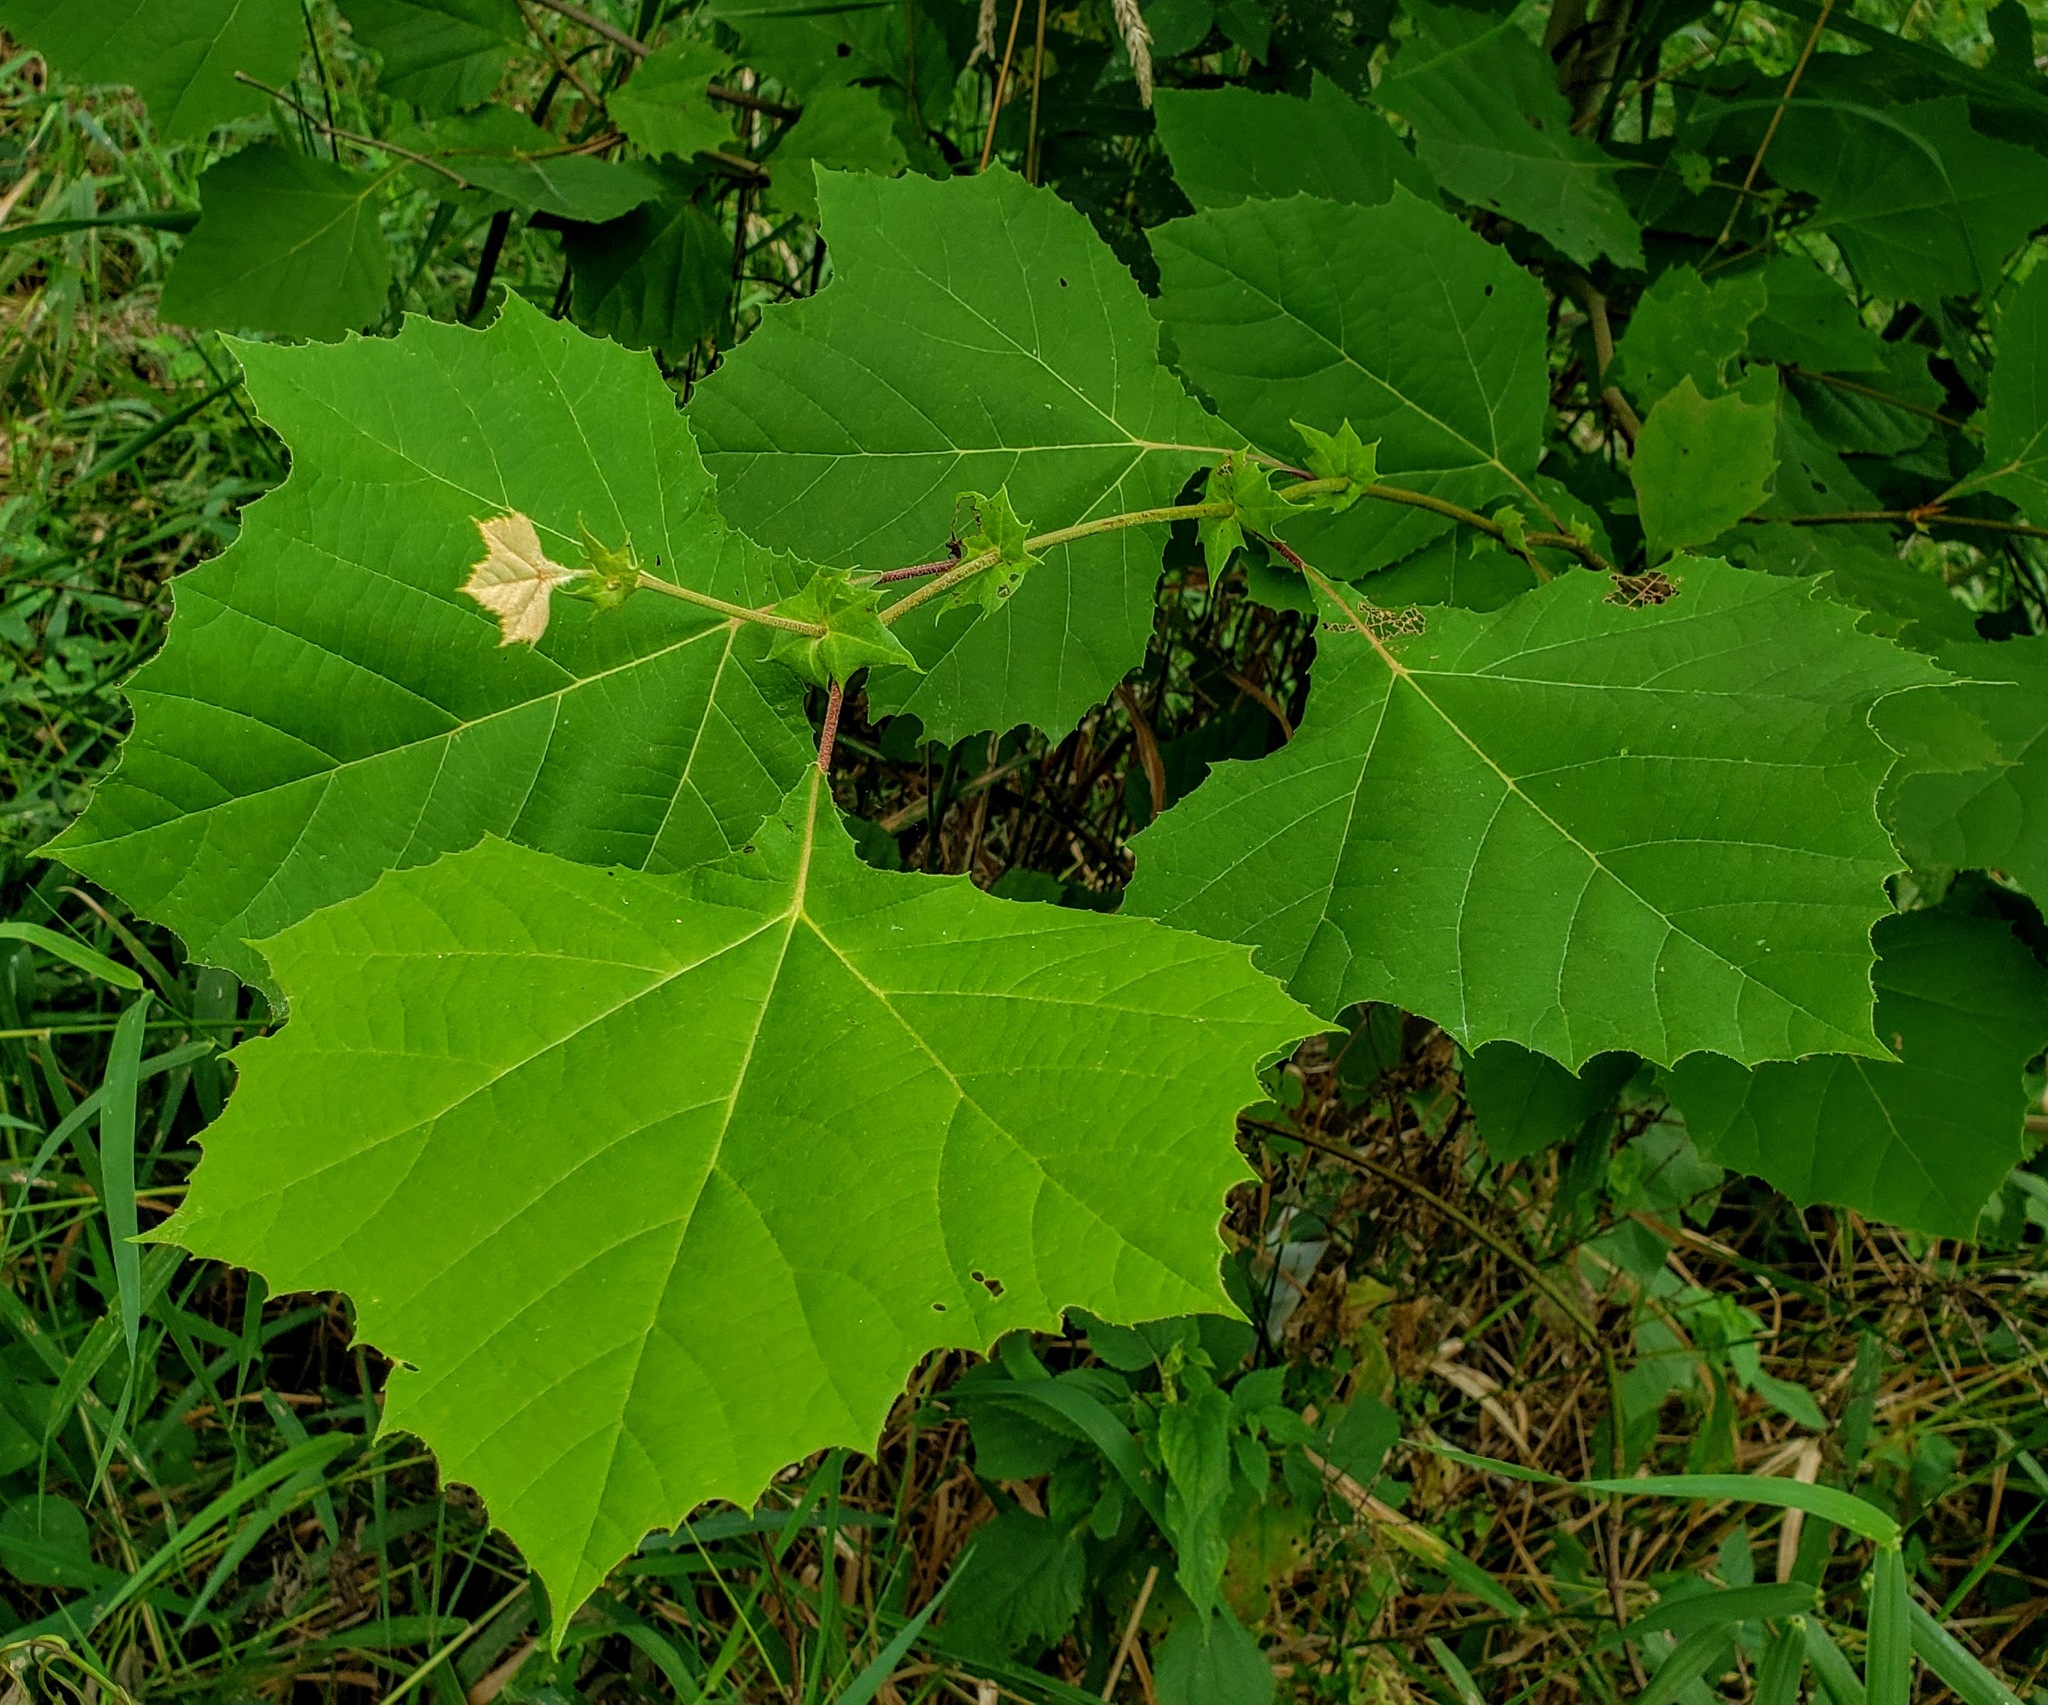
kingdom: Plantae
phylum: Tracheophyta
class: Magnoliopsida
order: Proteales
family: Platanaceae
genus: Platanus
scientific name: Platanus occidentalis
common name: American sycamore
